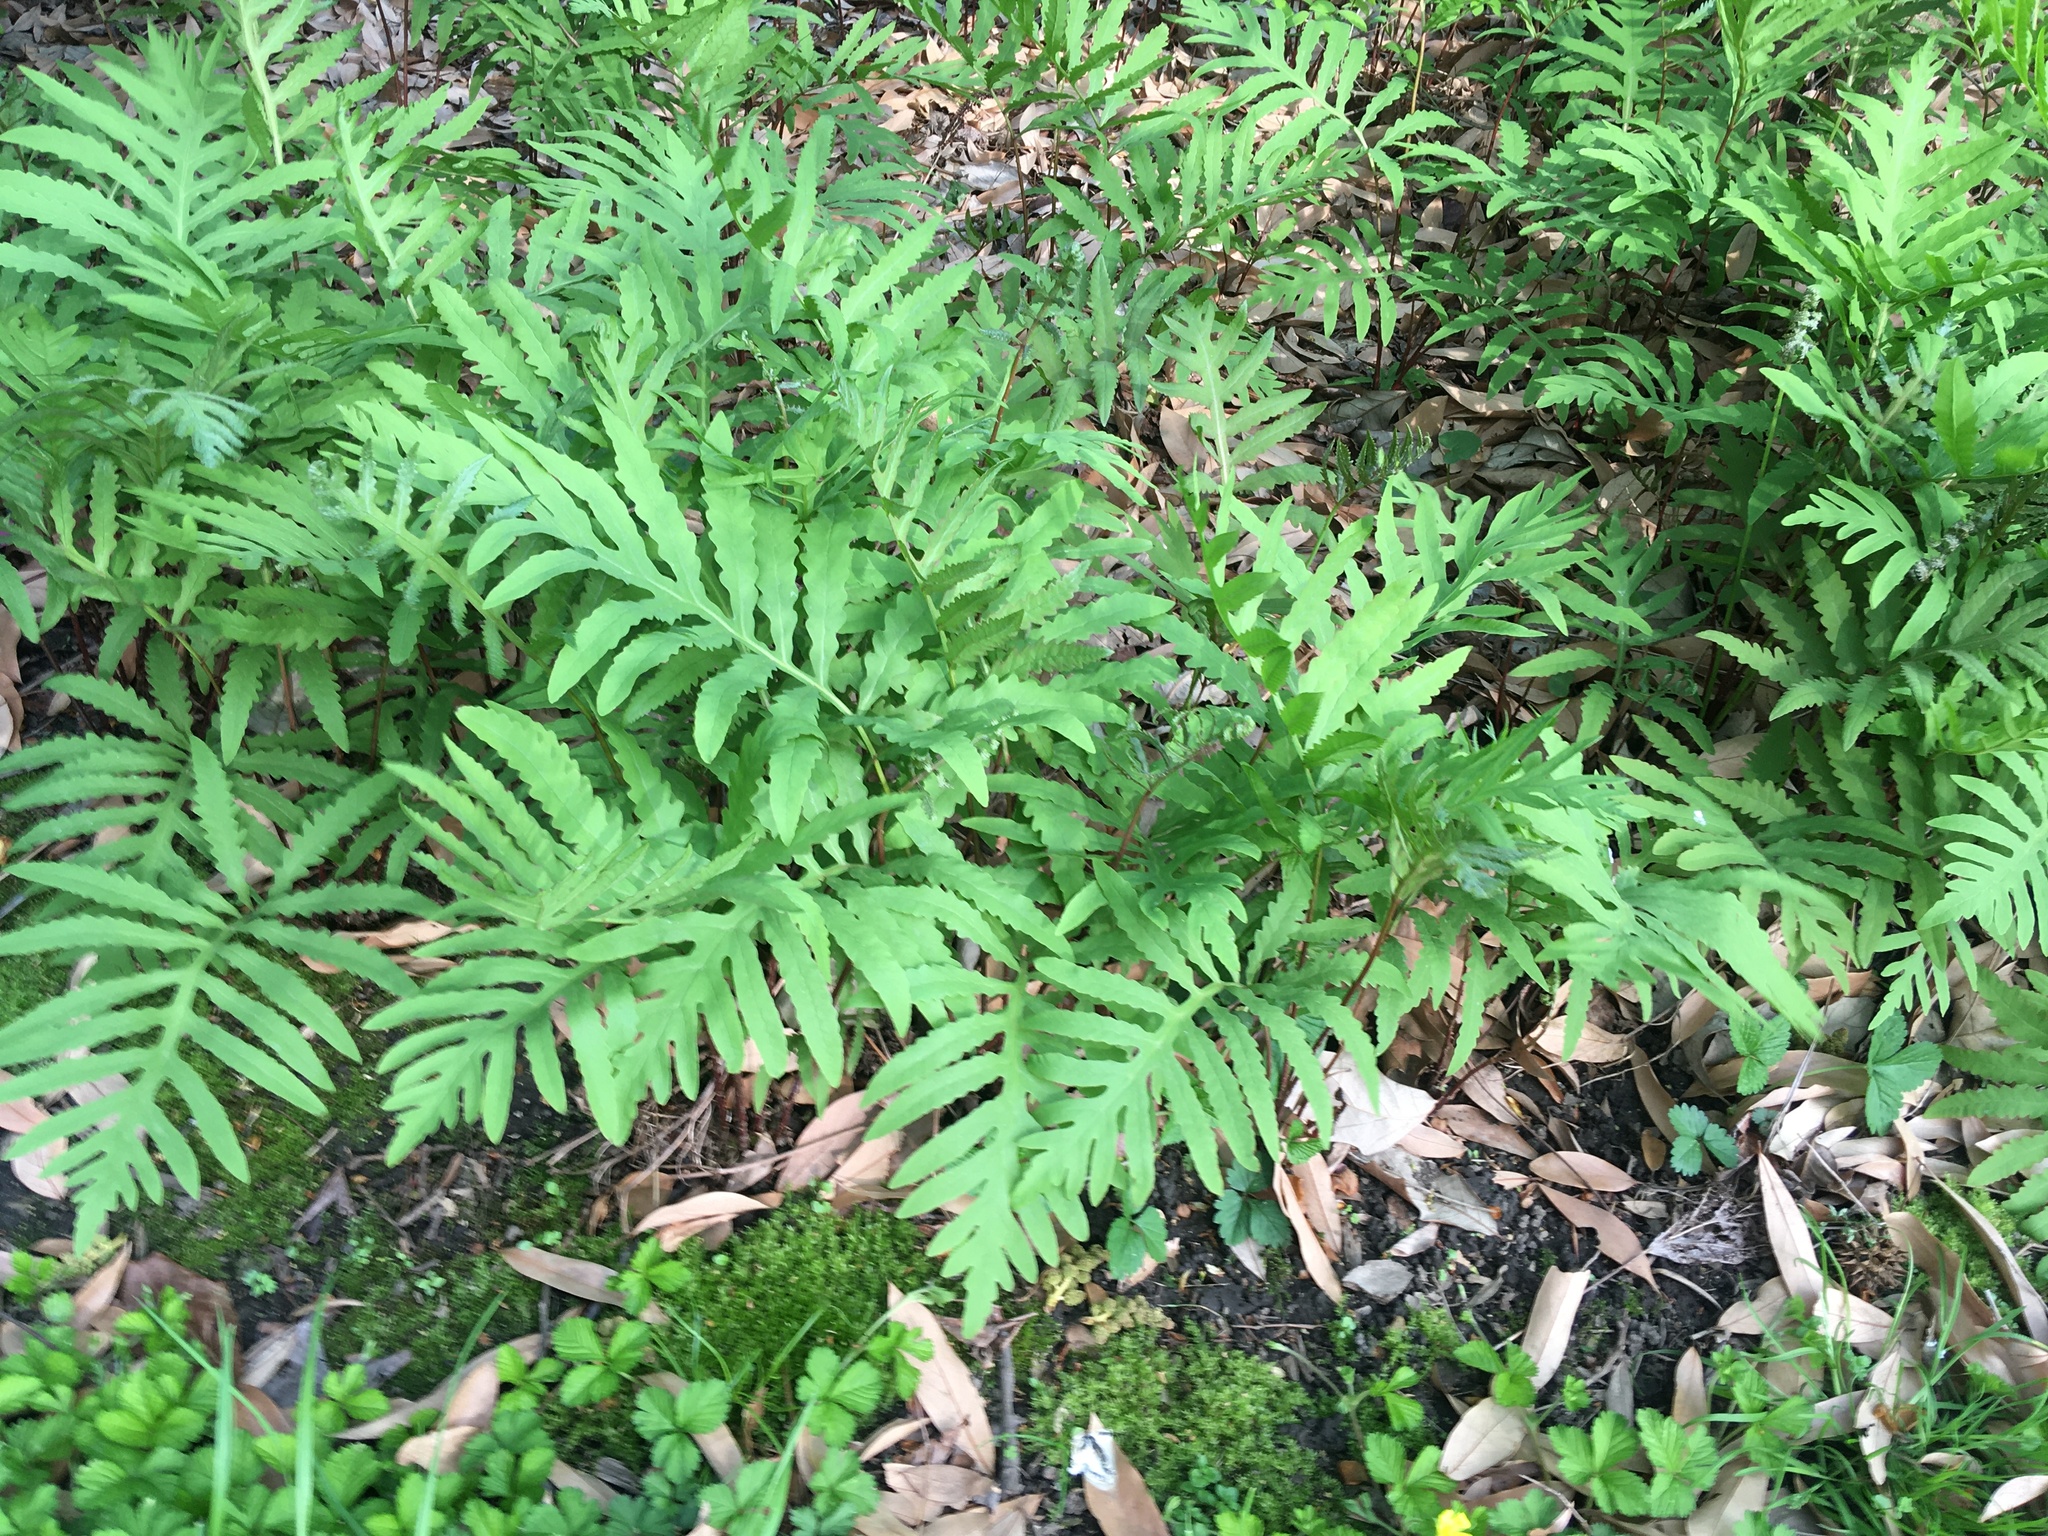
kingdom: Plantae
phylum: Tracheophyta
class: Polypodiopsida
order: Polypodiales
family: Onocleaceae
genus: Onoclea
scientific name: Onoclea sensibilis
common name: Sensitive fern
